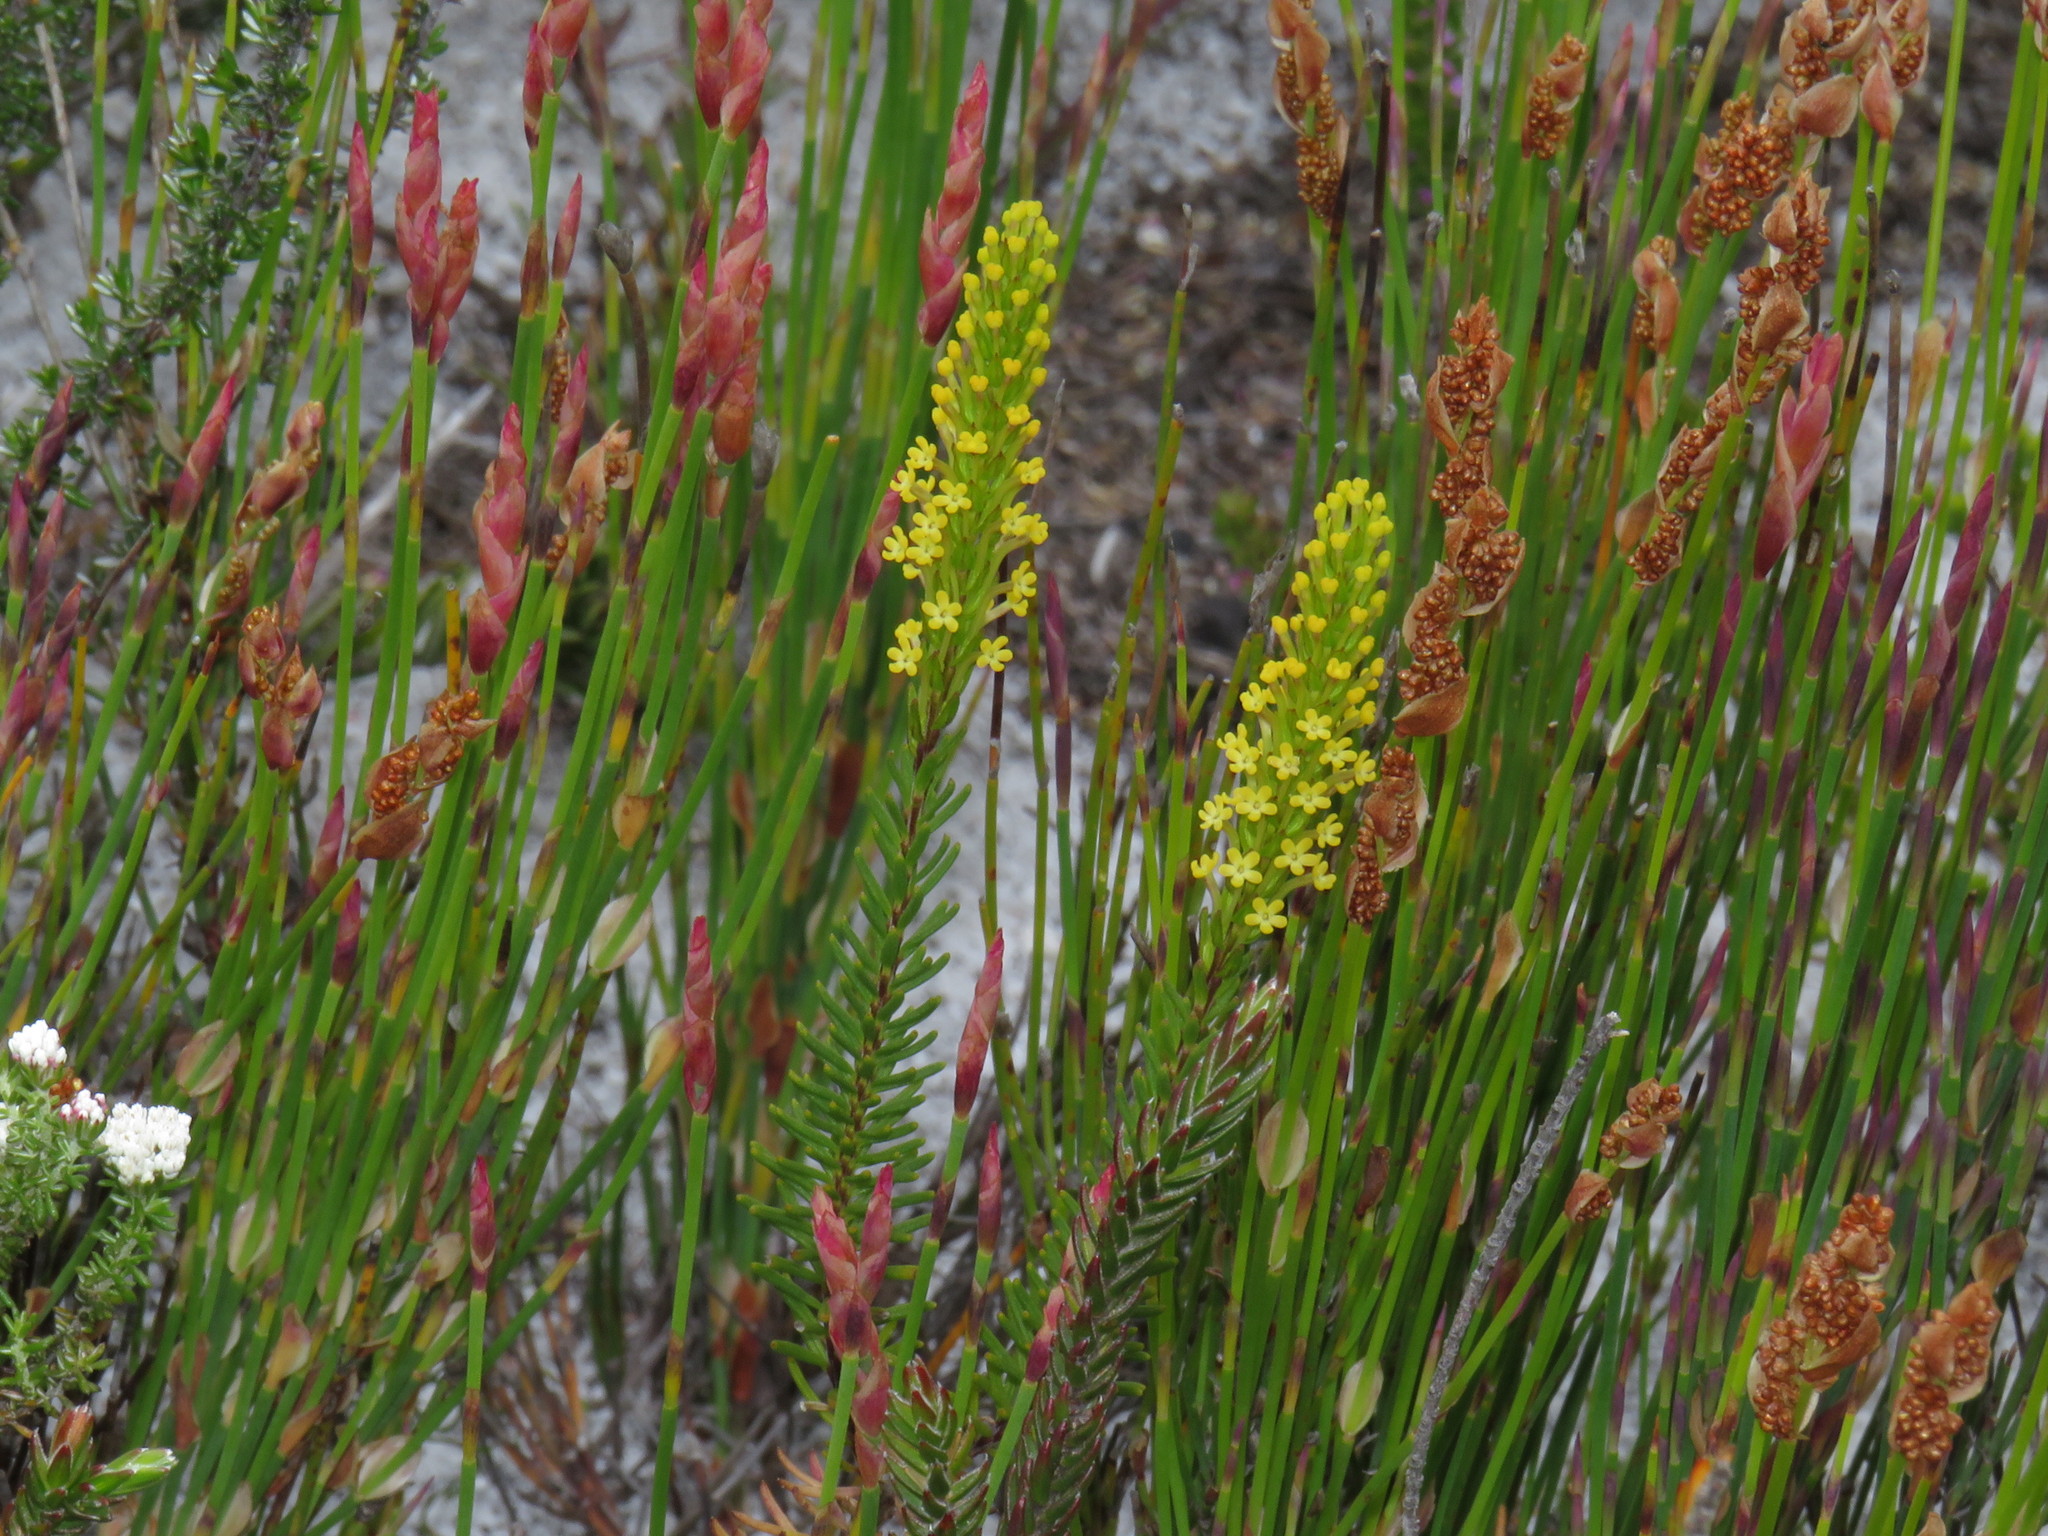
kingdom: Plantae
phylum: Tracheophyta
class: Magnoliopsida
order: Lamiales
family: Scrophulariaceae
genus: Microdon
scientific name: Microdon dubius
